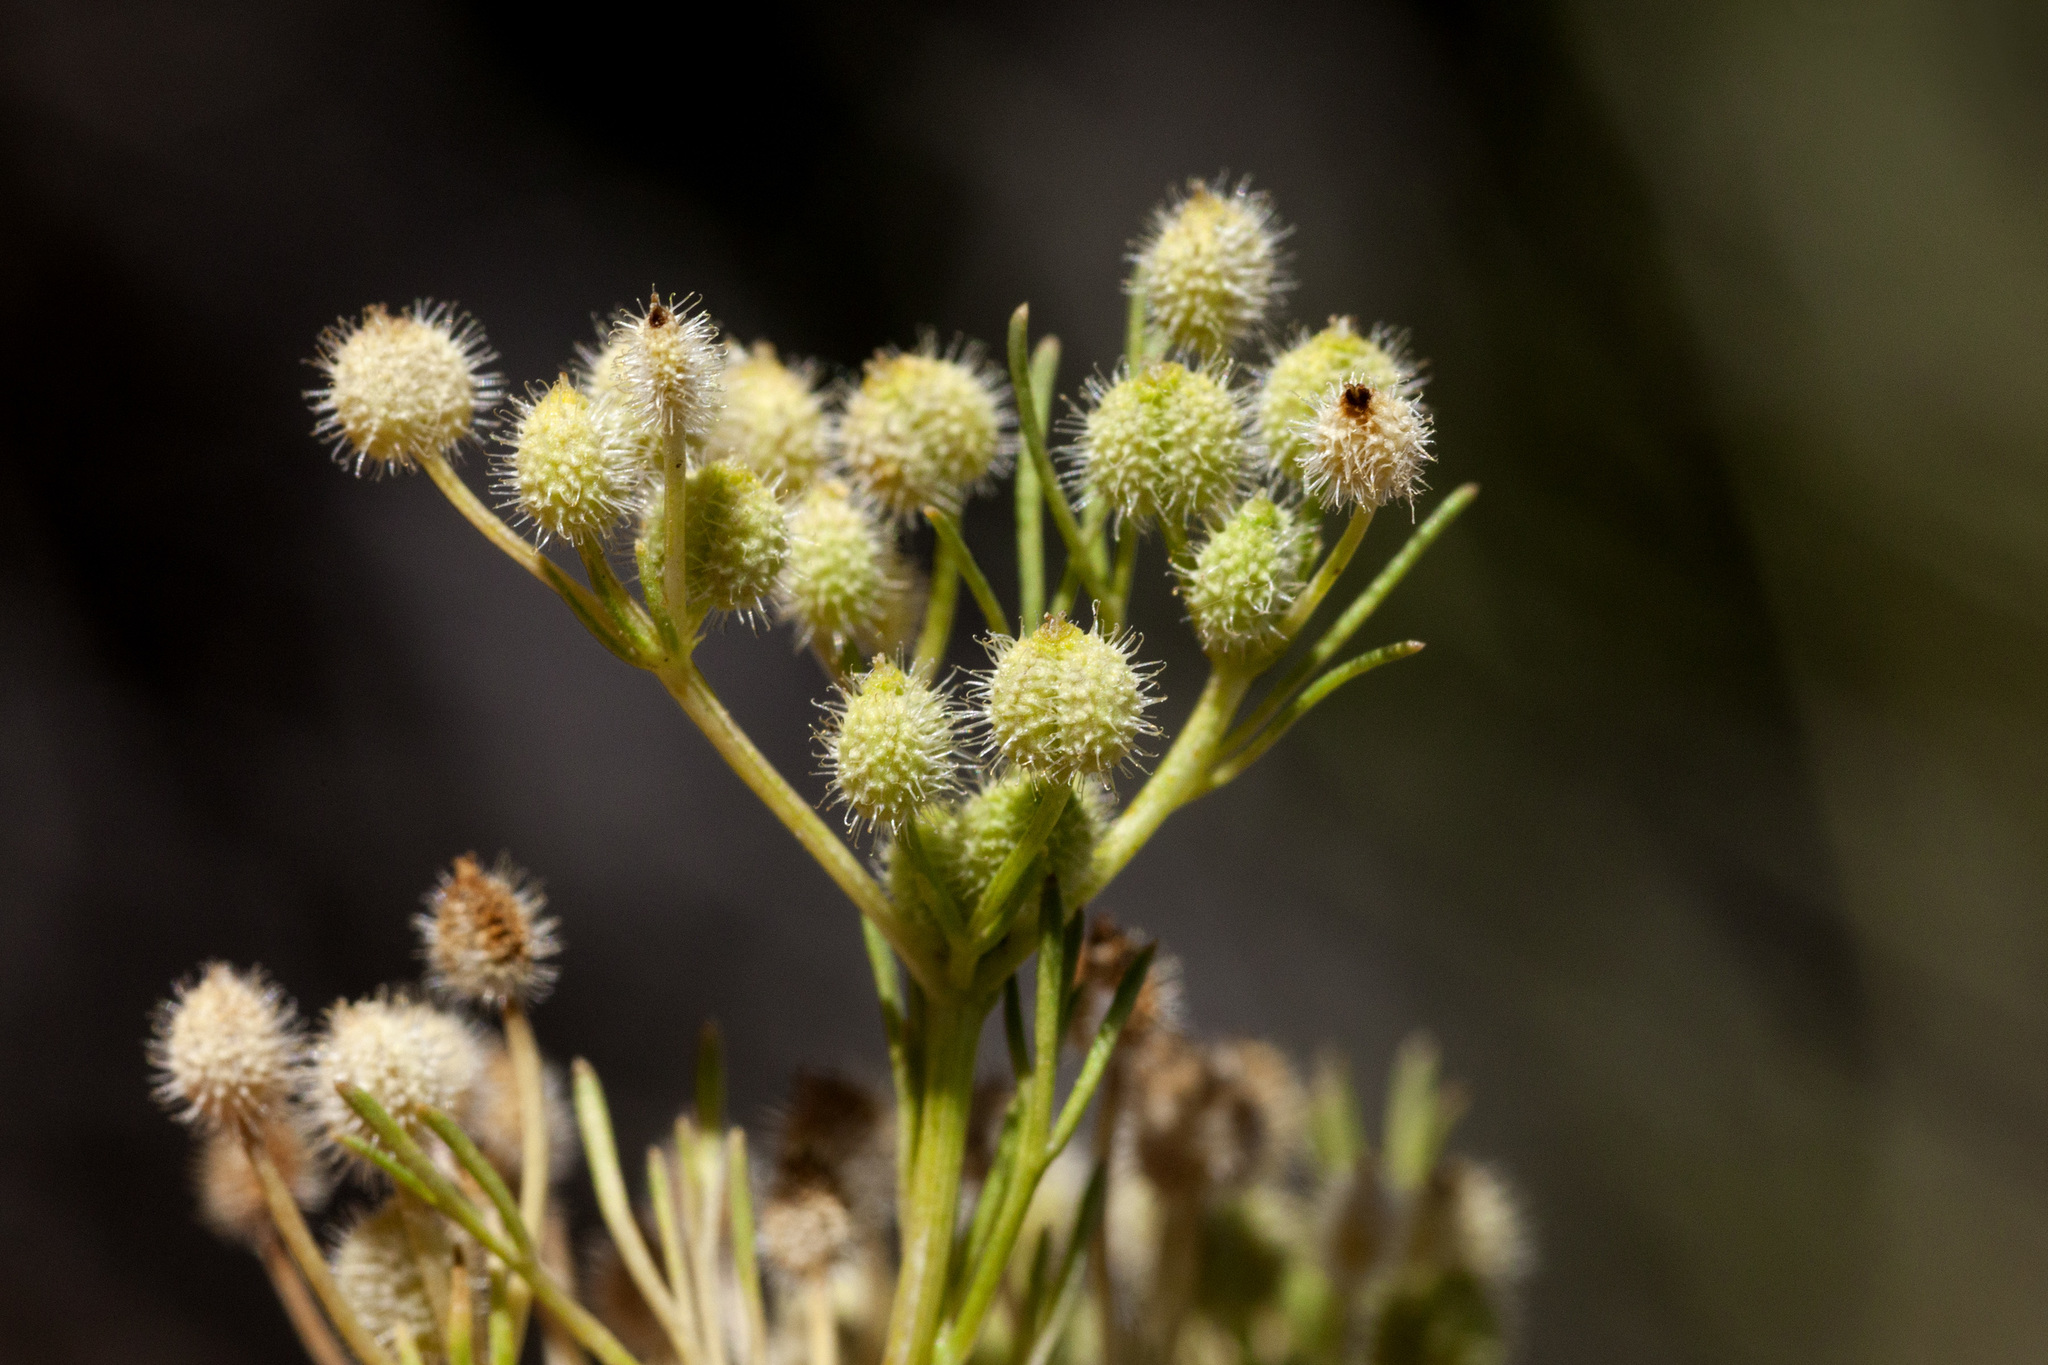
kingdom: Plantae
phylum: Tracheophyta
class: Magnoliopsida
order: Apiales
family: Apiaceae
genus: Spermolepis
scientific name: Spermolepis lateriflora
